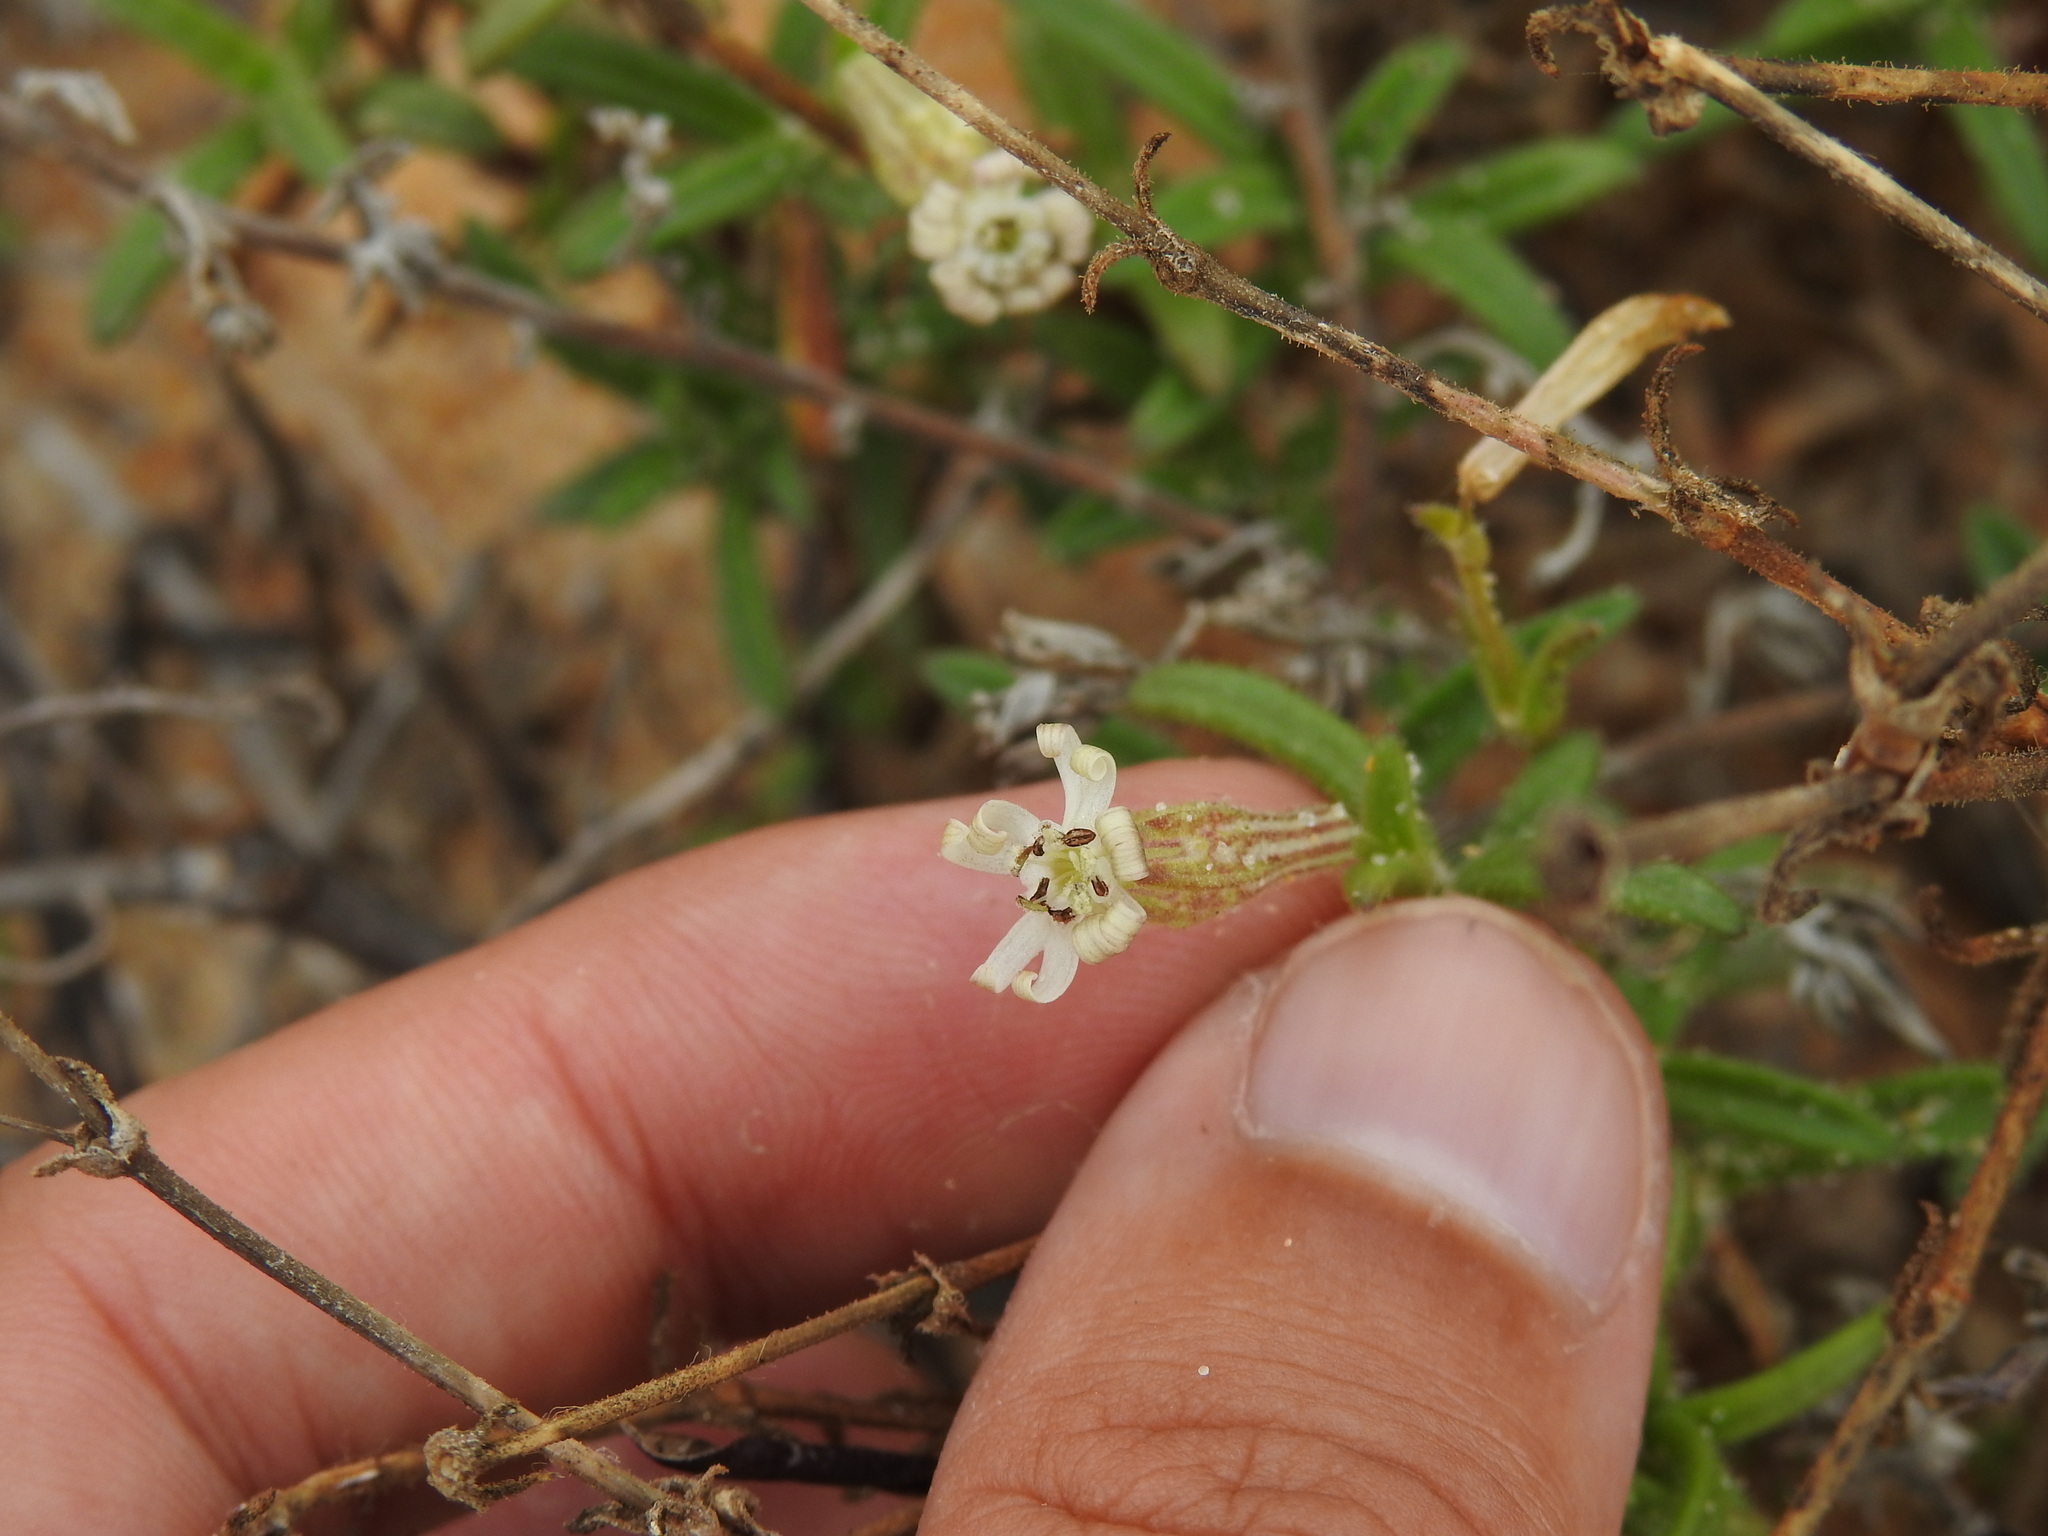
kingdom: Plantae
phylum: Tracheophyta
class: Magnoliopsida
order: Caryophyllales
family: Caryophyllaceae
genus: Silene
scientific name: Silene nicaeensis
